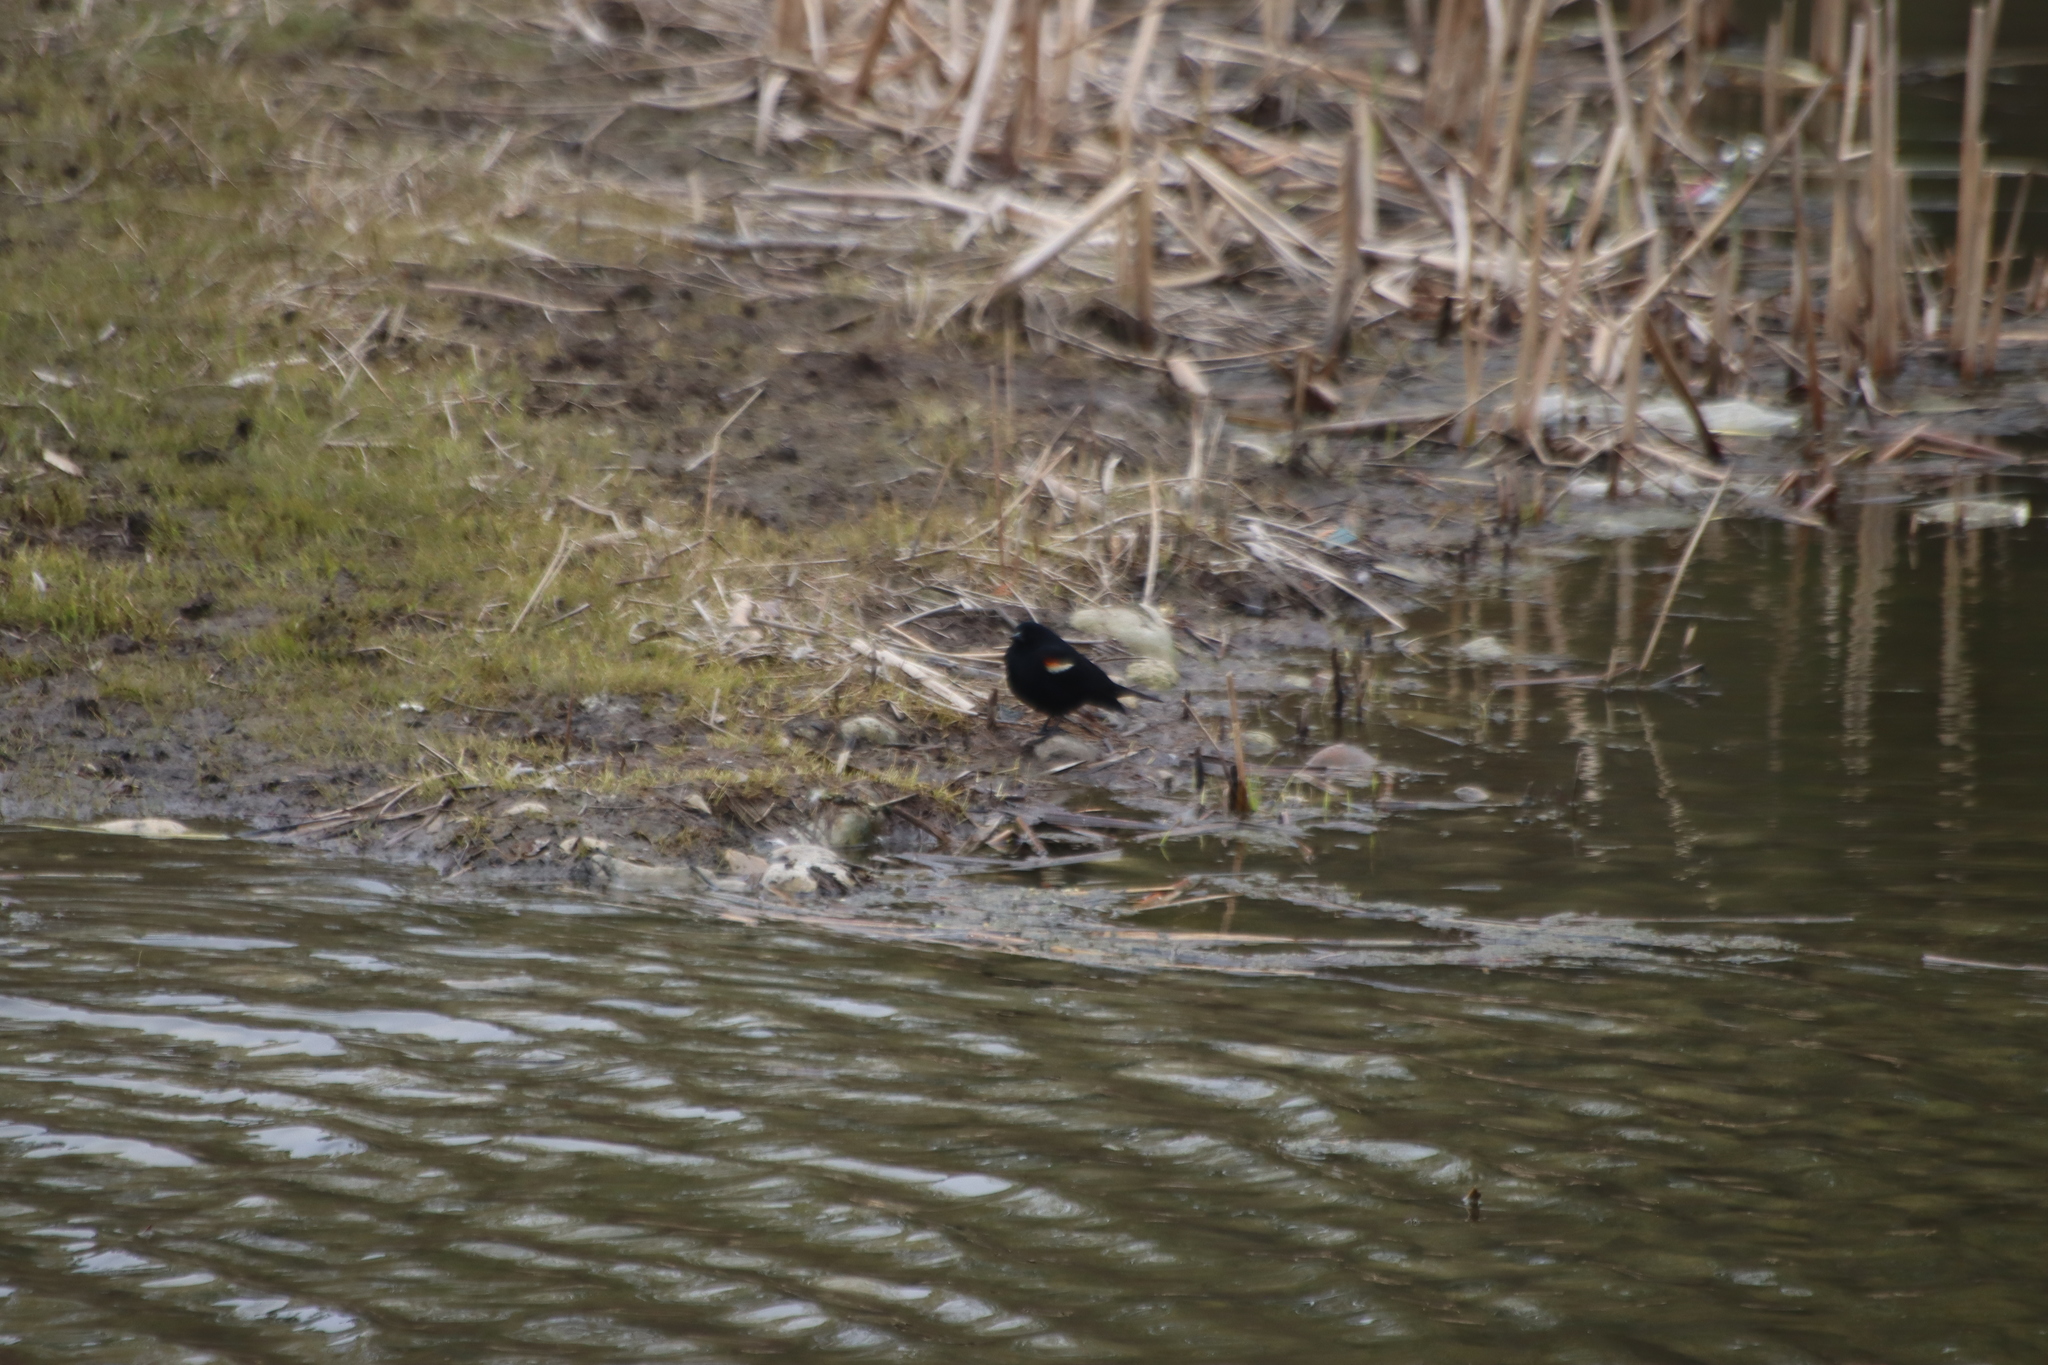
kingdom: Animalia
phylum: Chordata
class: Aves
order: Passeriformes
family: Icteridae
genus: Agelaius
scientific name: Agelaius phoeniceus
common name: Red-winged blackbird
